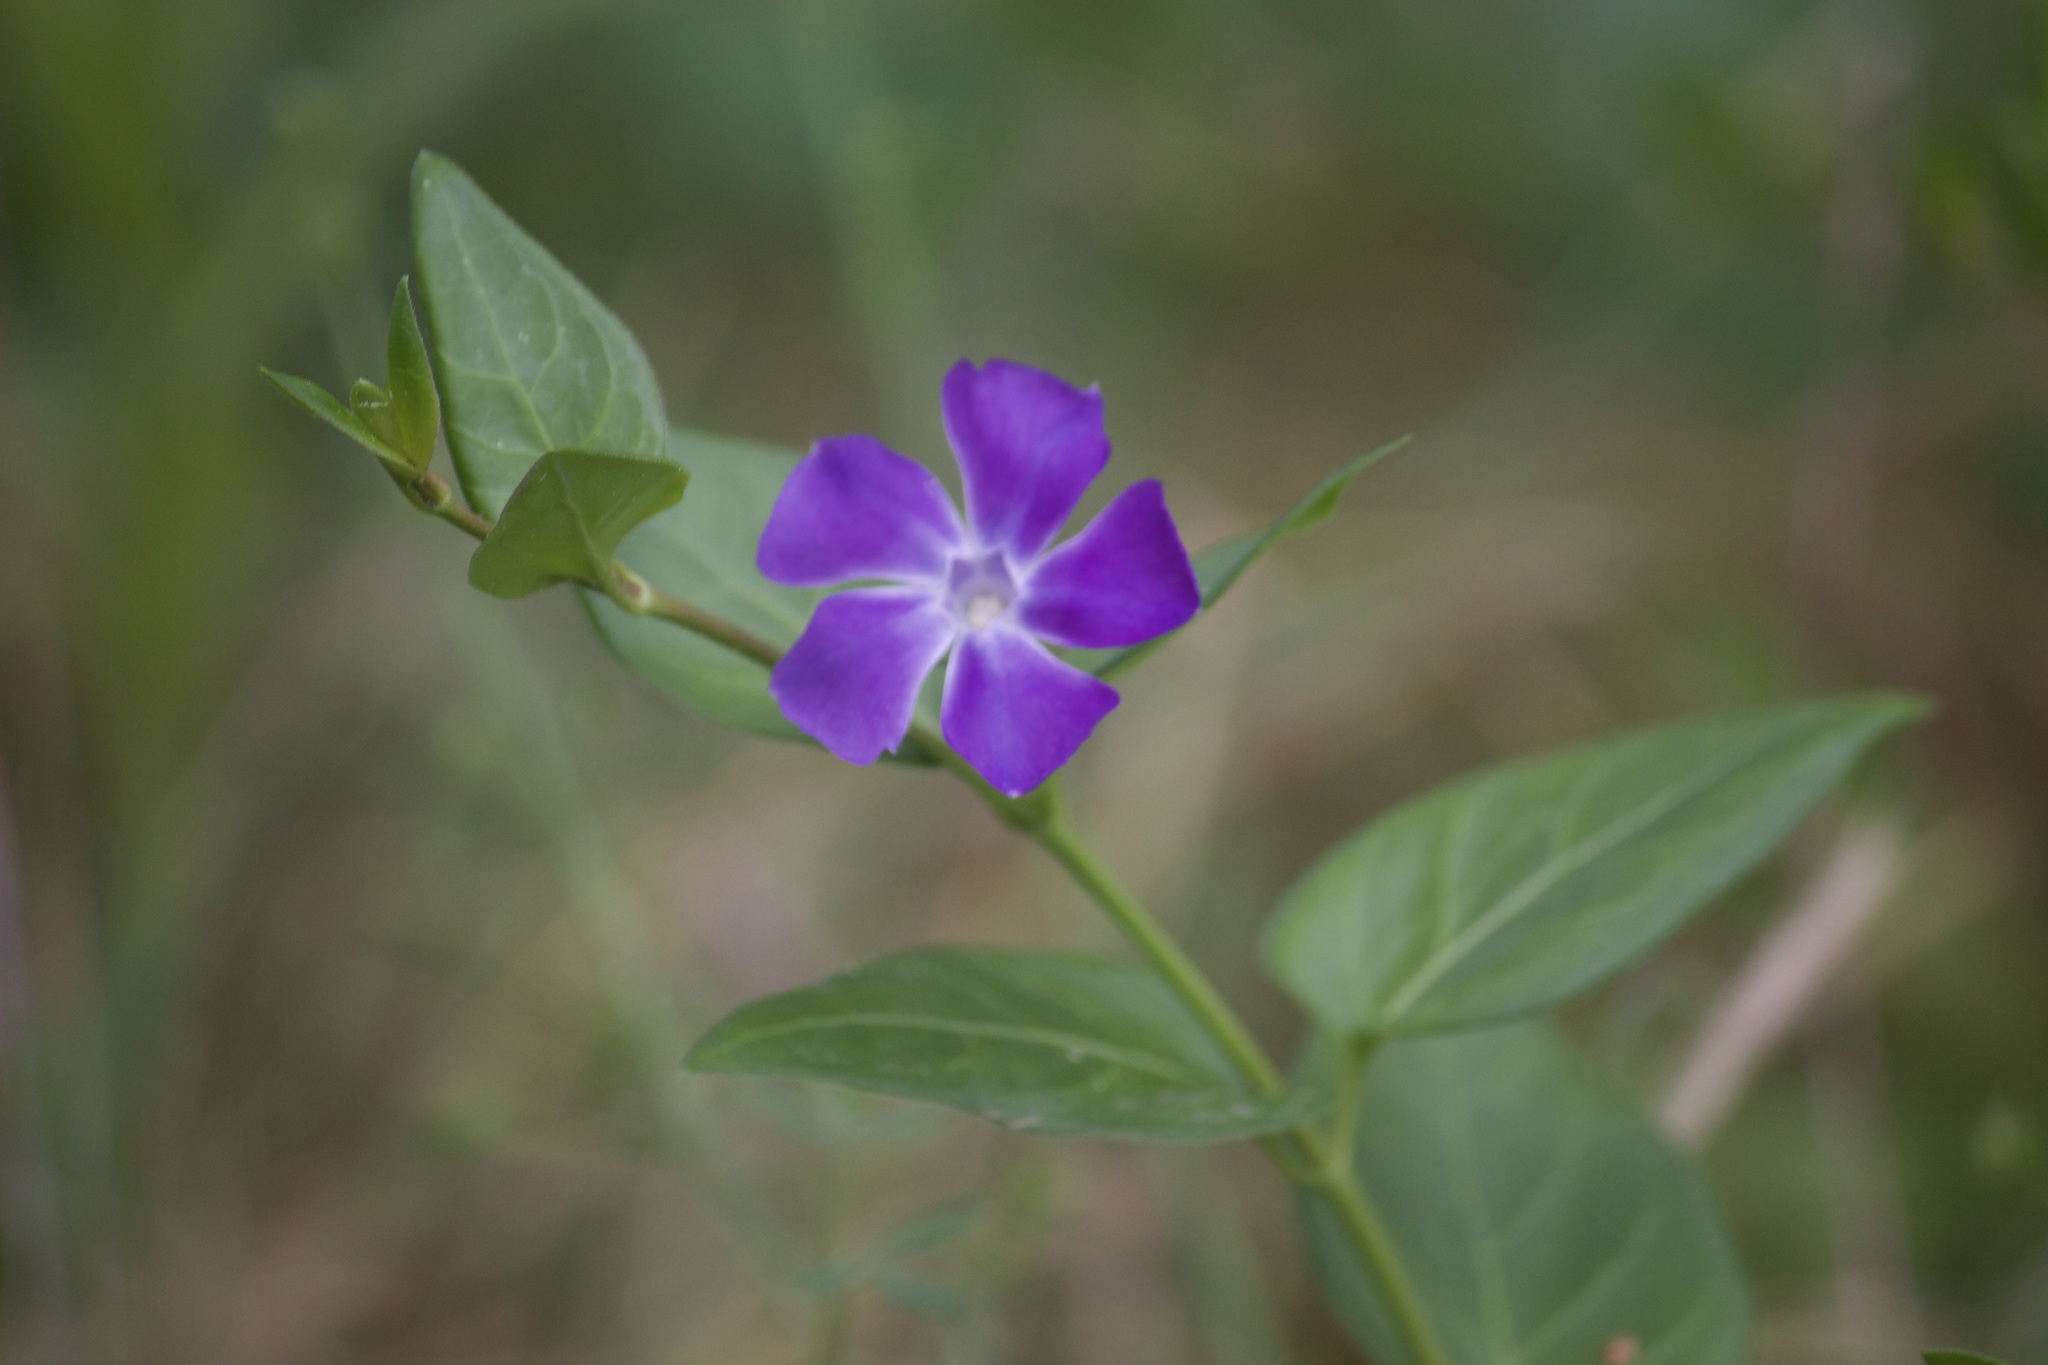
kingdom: Plantae
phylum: Tracheophyta
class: Magnoliopsida
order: Gentianales
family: Apocynaceae
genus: Vinca
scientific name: Vinca major
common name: Greater periwinkle
